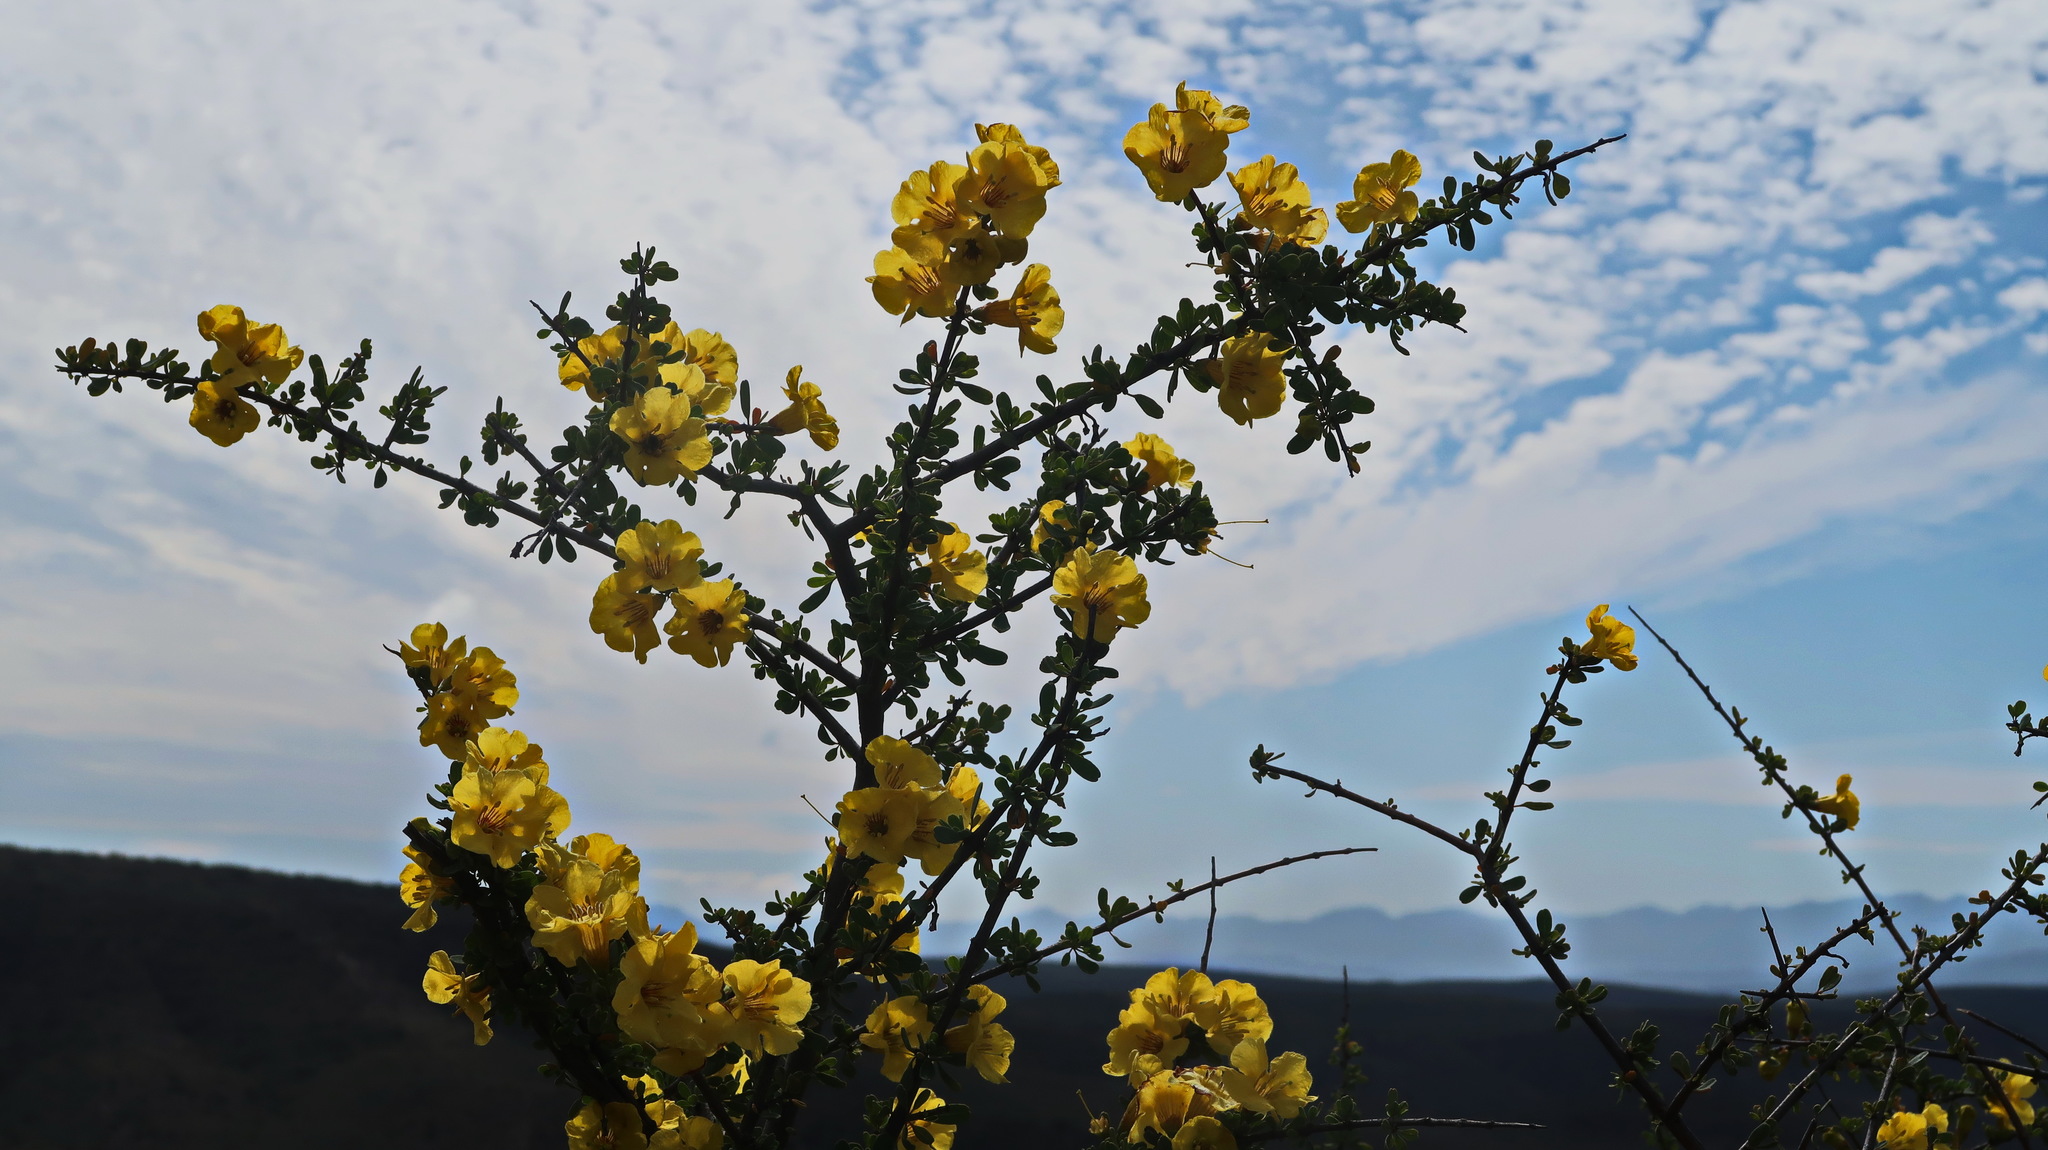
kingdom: Plantae
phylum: Tracheophyta
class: Magnoliopsida
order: Lamiales
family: Bignoniaceae
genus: Rhigozum
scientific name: Rhigozum obovatum
